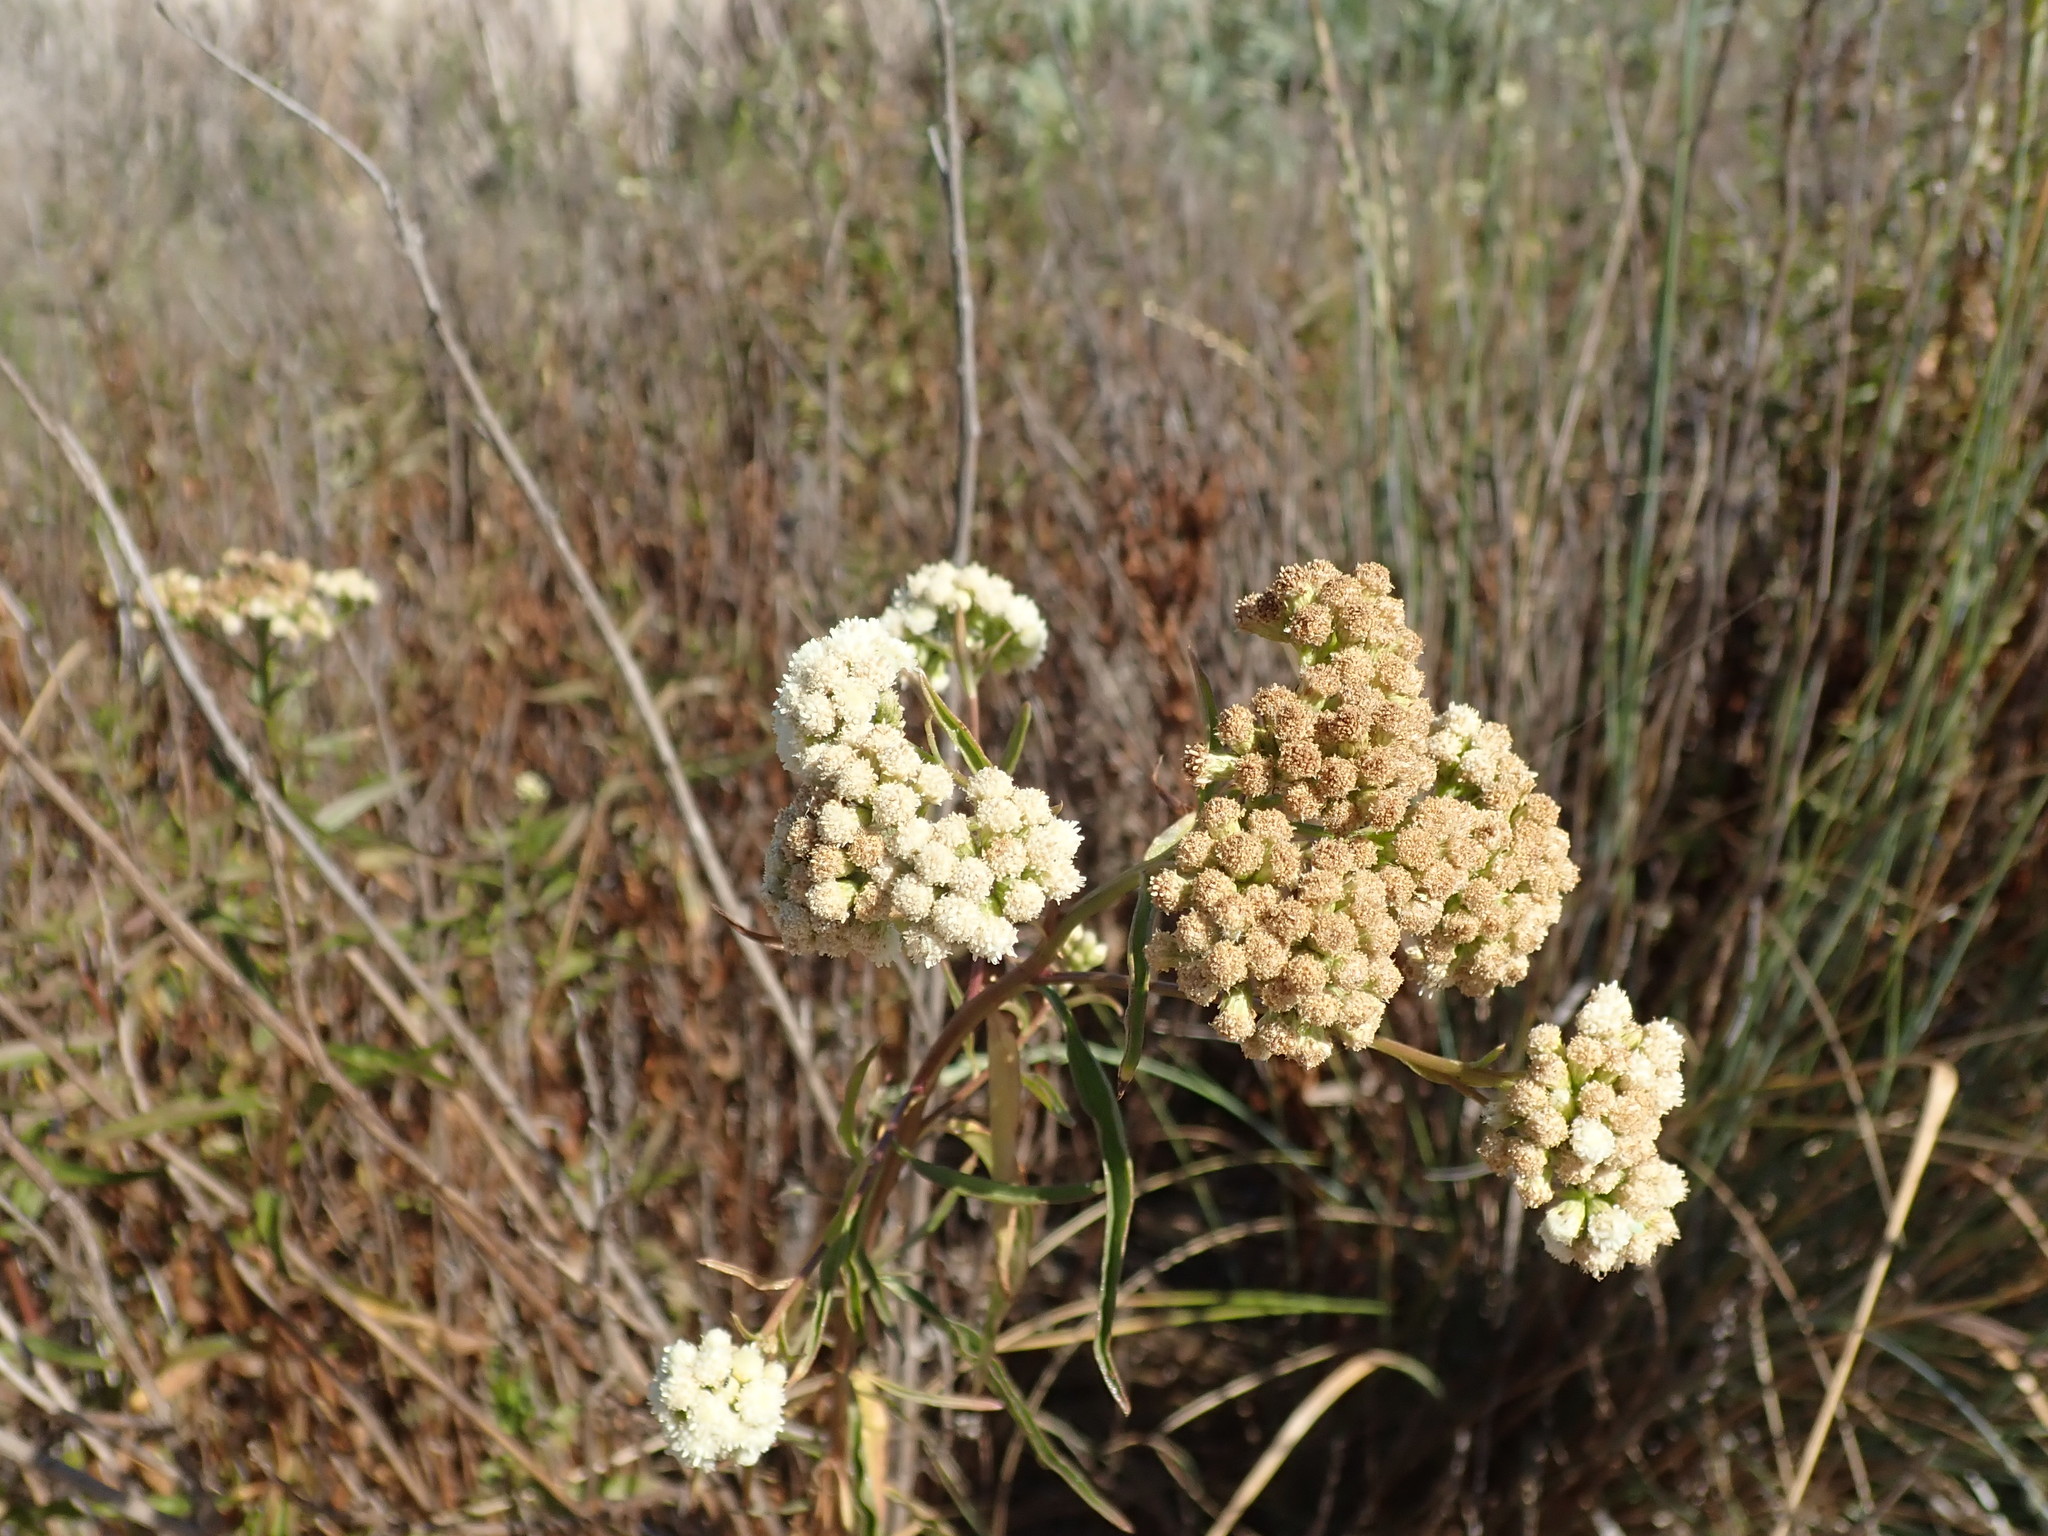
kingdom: Plantae
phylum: Tracheophyta
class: Magnoliopsida
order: Asterales
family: Asteraceae
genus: Baccharis
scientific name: Baccharis glutinosa
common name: Saltmarsh baccharis
